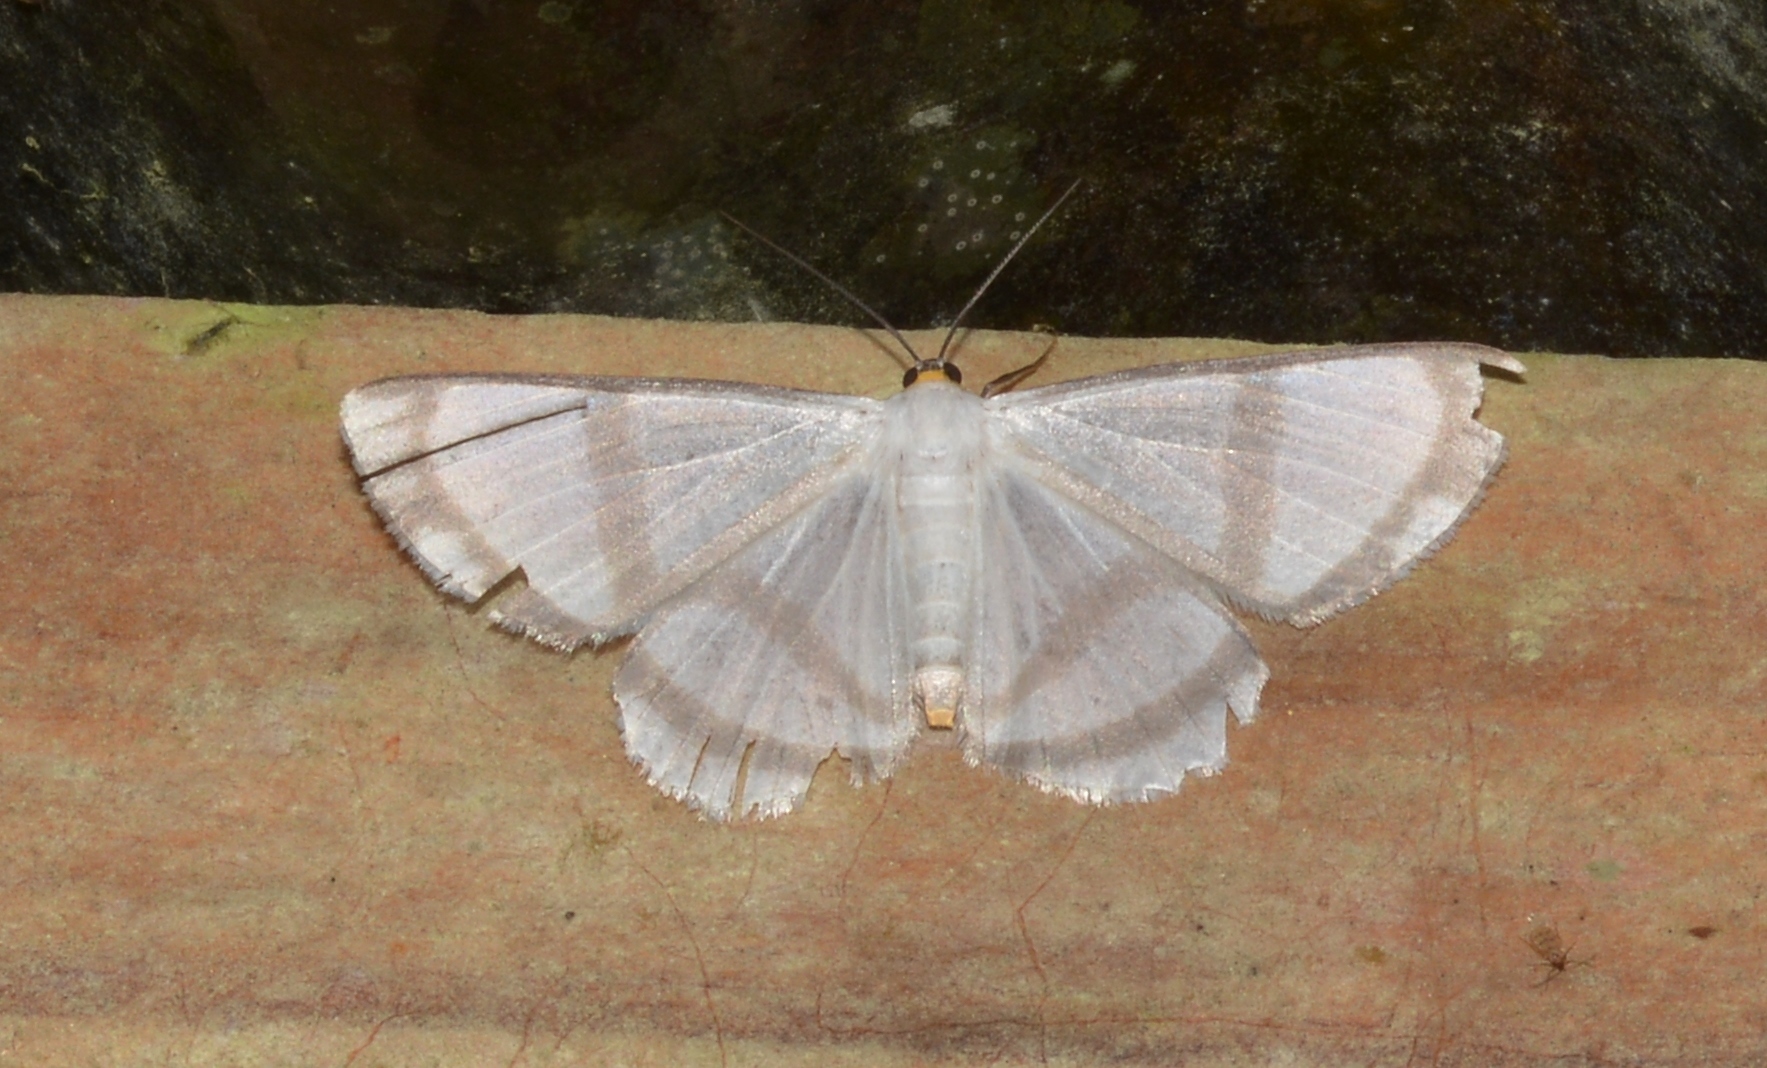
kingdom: Animalia
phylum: Arthropoda
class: Insecta
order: Lepidoptera
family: Geometridae
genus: Perigramma
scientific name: Perigramma repetita
